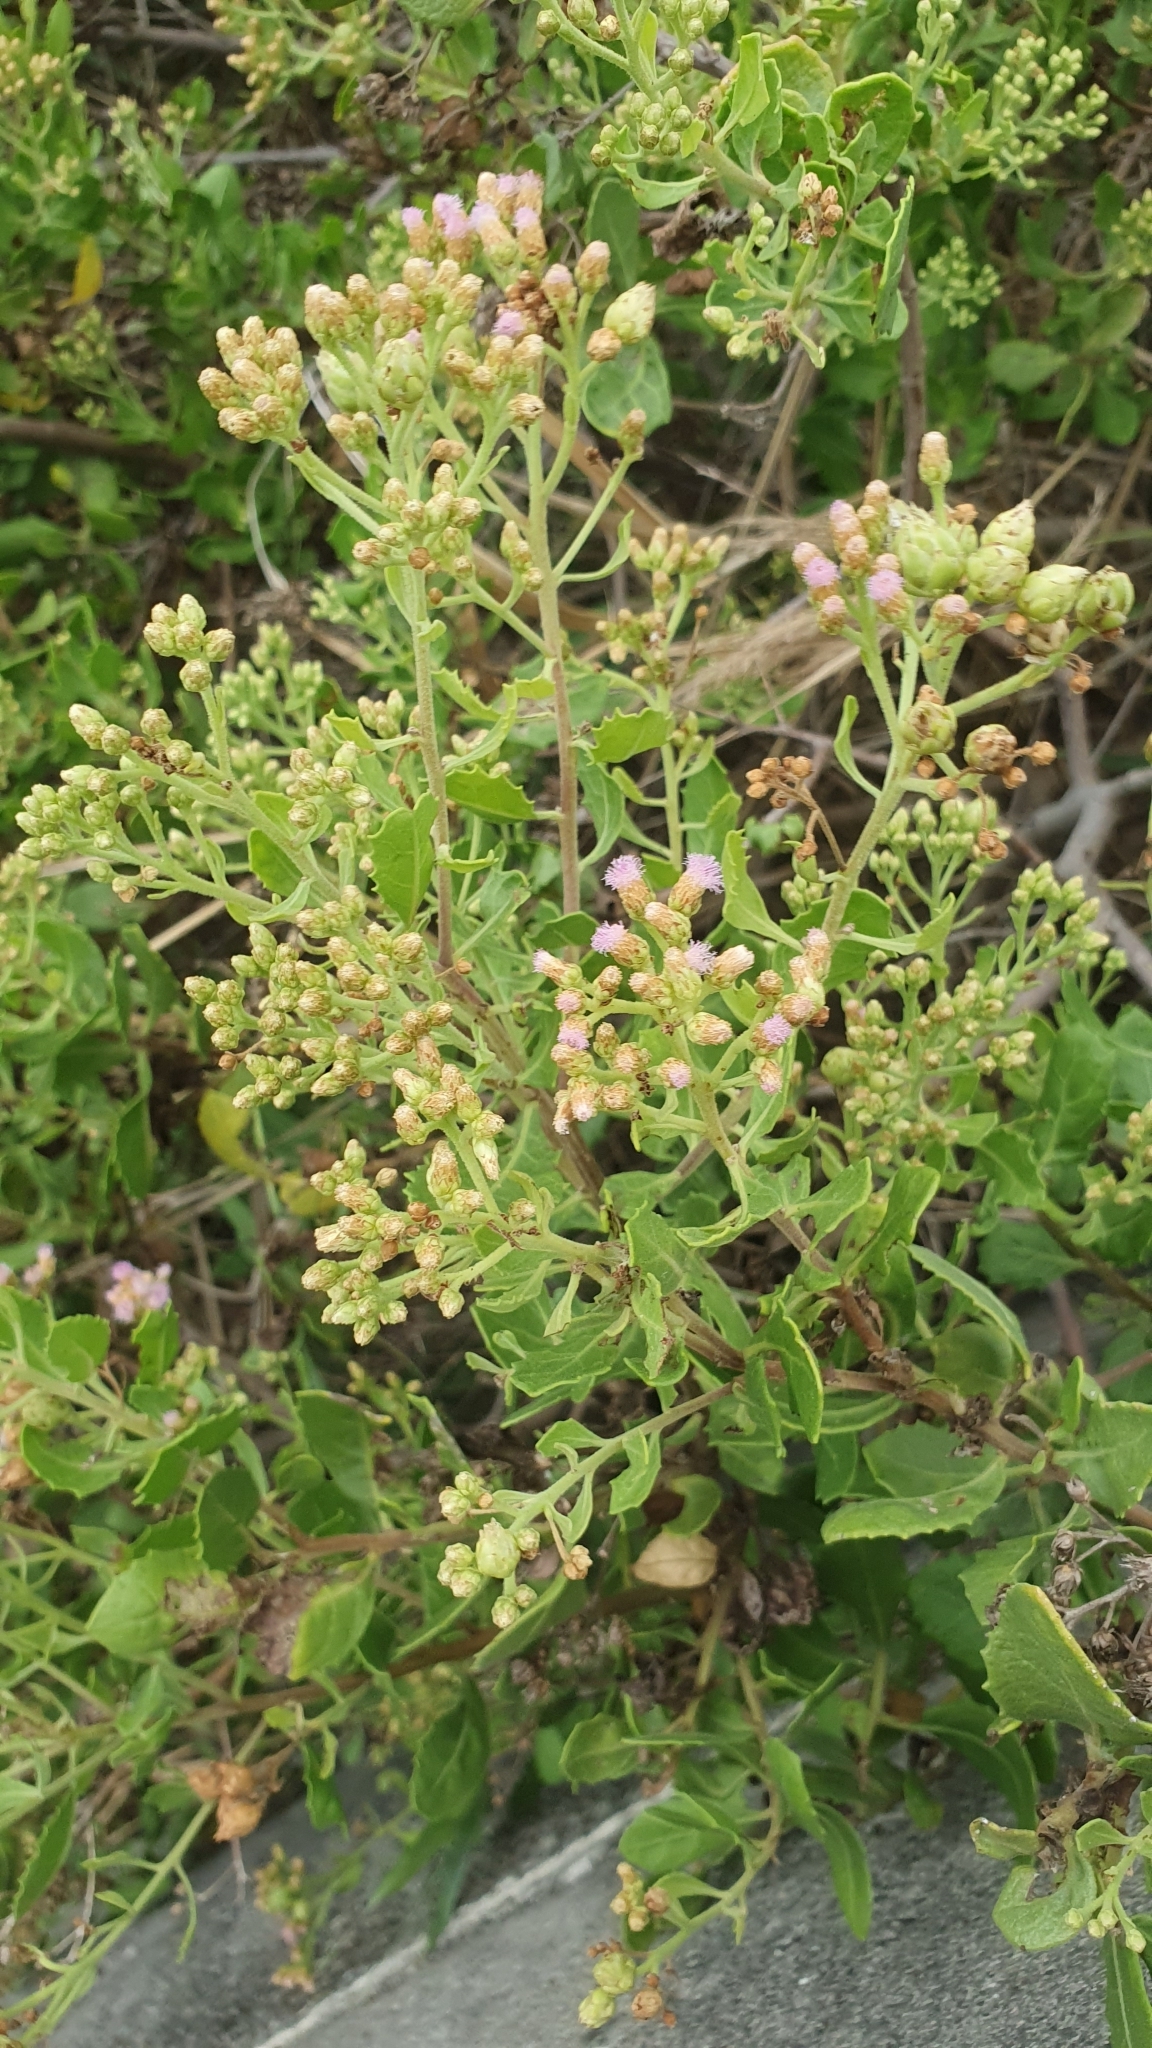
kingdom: Plantae
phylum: Tracheophyta
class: Magnoliopsida
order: Asterales
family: Asteraceae
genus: Pluchea
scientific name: Pluchea indica
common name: Indian fleabane
